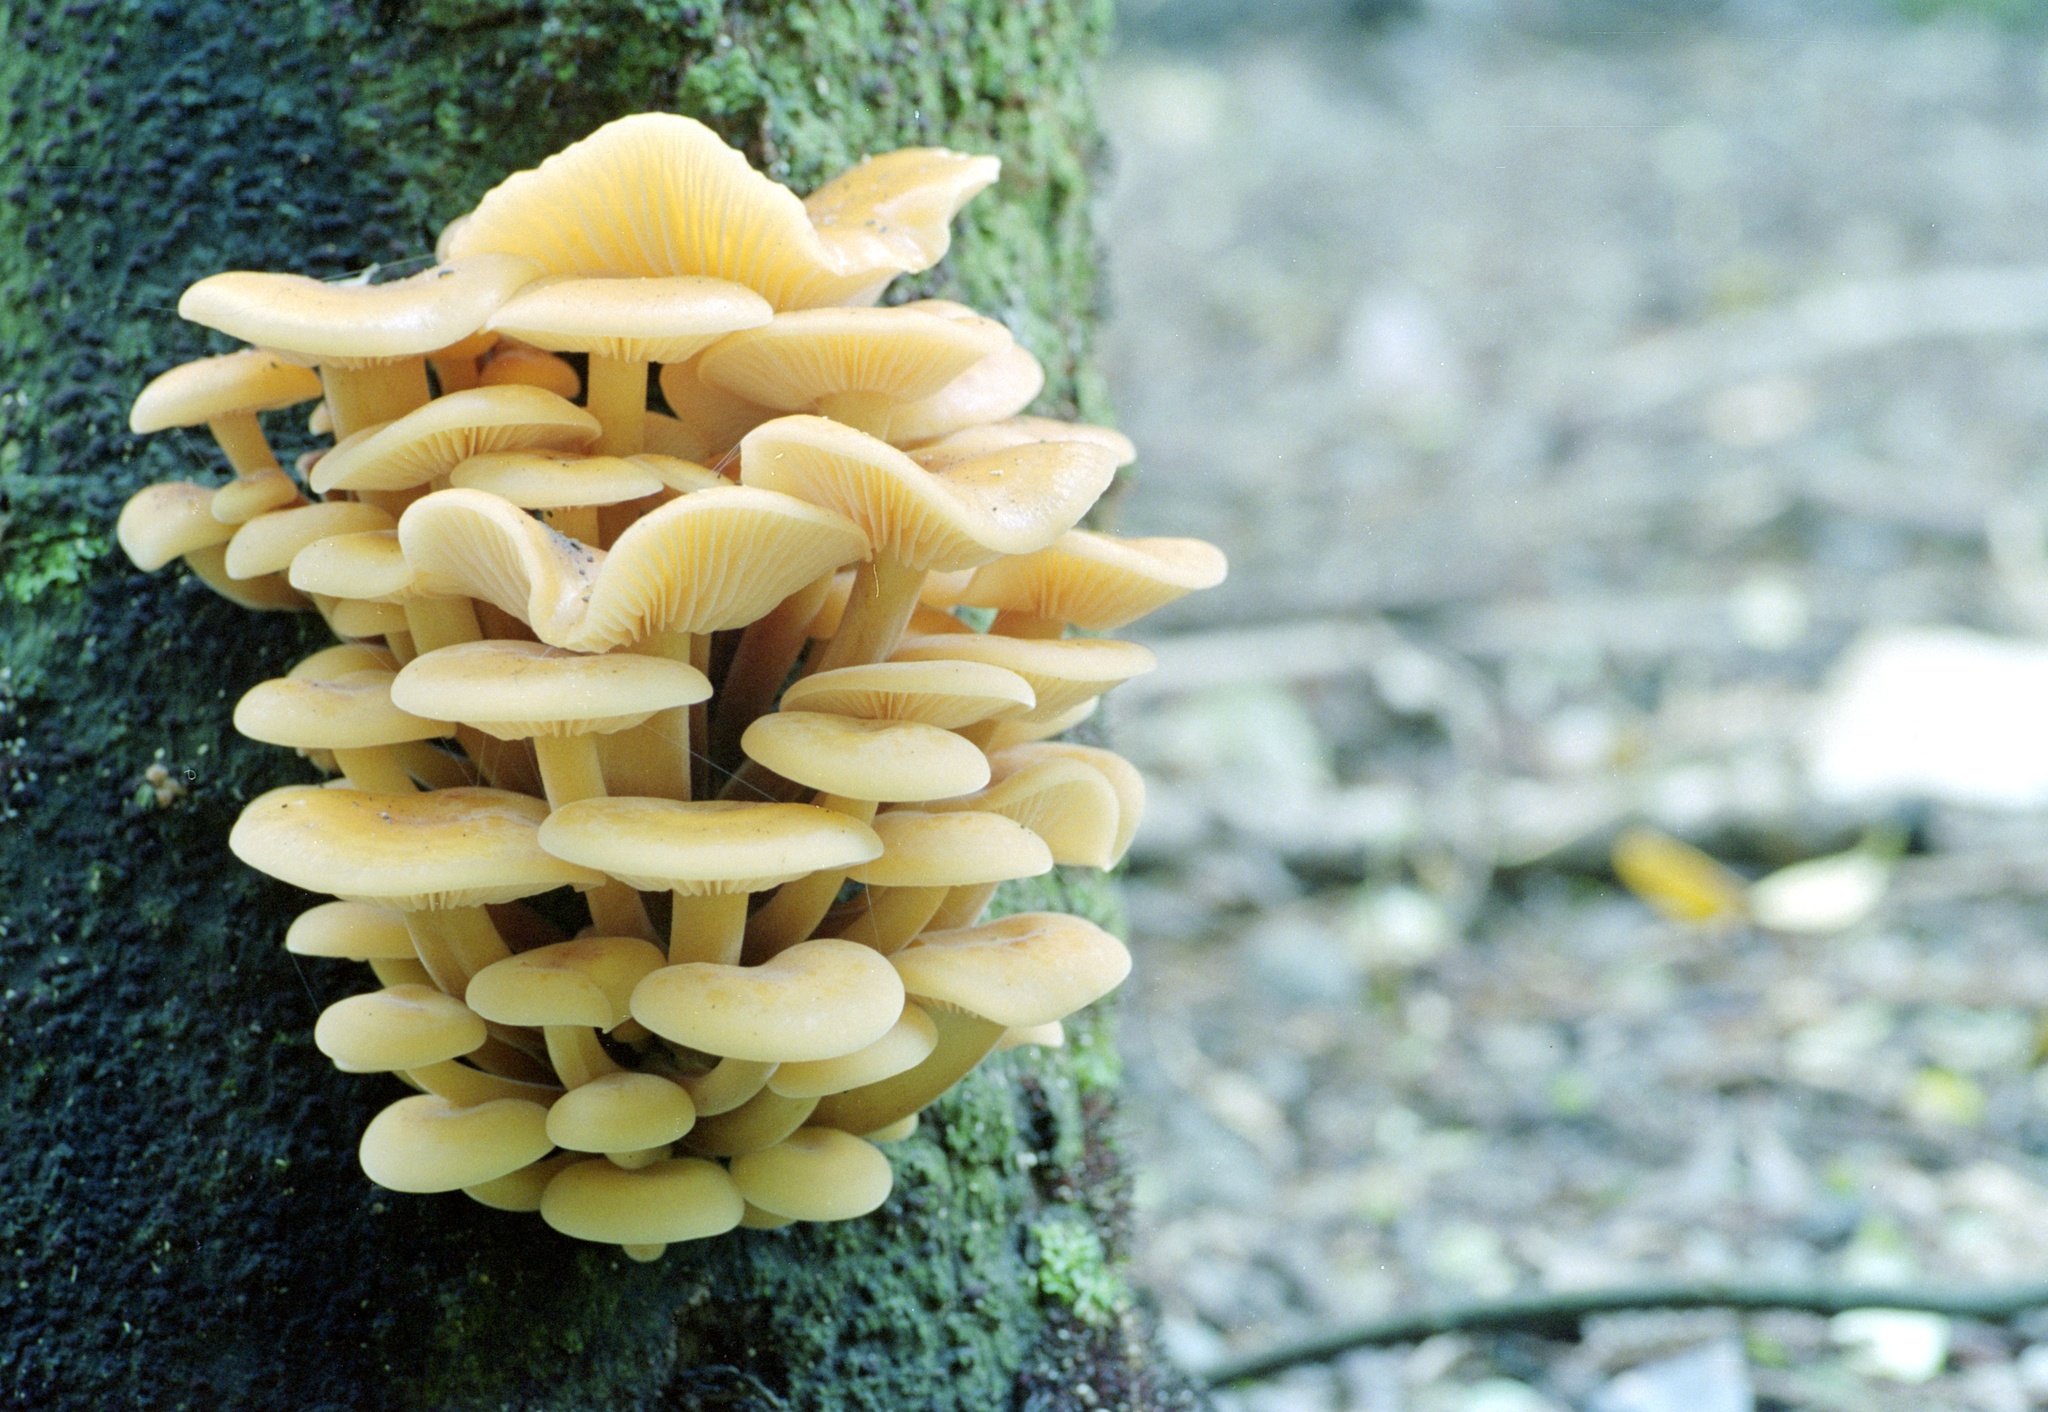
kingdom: Fungi
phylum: Basidiomycota
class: Agaricomycetes
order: Agaricales
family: Physalacriaceae
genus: Flammulina
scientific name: Flammulina velutipes
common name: Velvet shank
